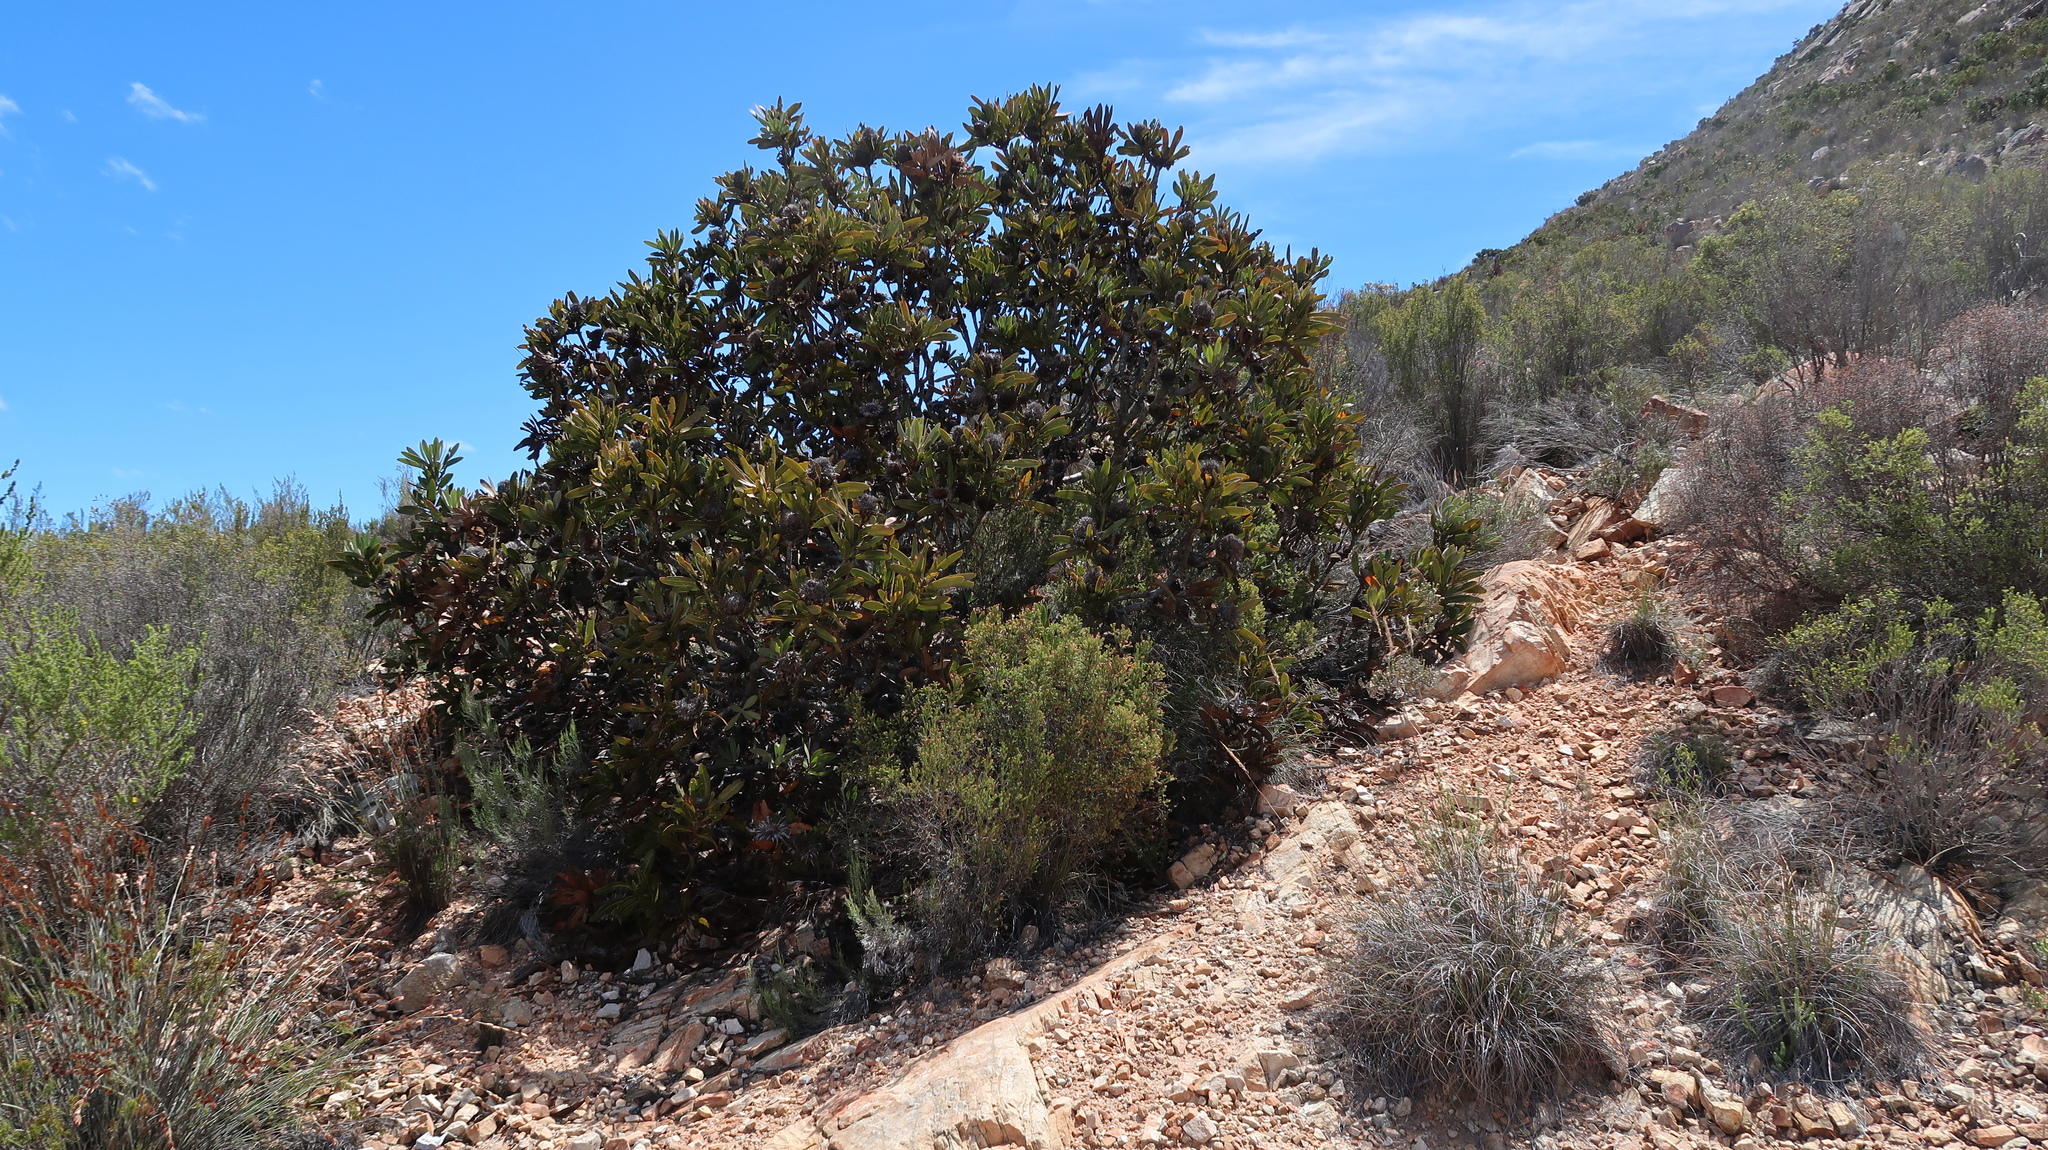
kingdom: Plantae
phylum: Tracheophyta
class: Magnoliopsida
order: Proteales
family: Proteaceae
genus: Protea
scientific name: Protea lorifolia
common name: Strap-leaved protea
